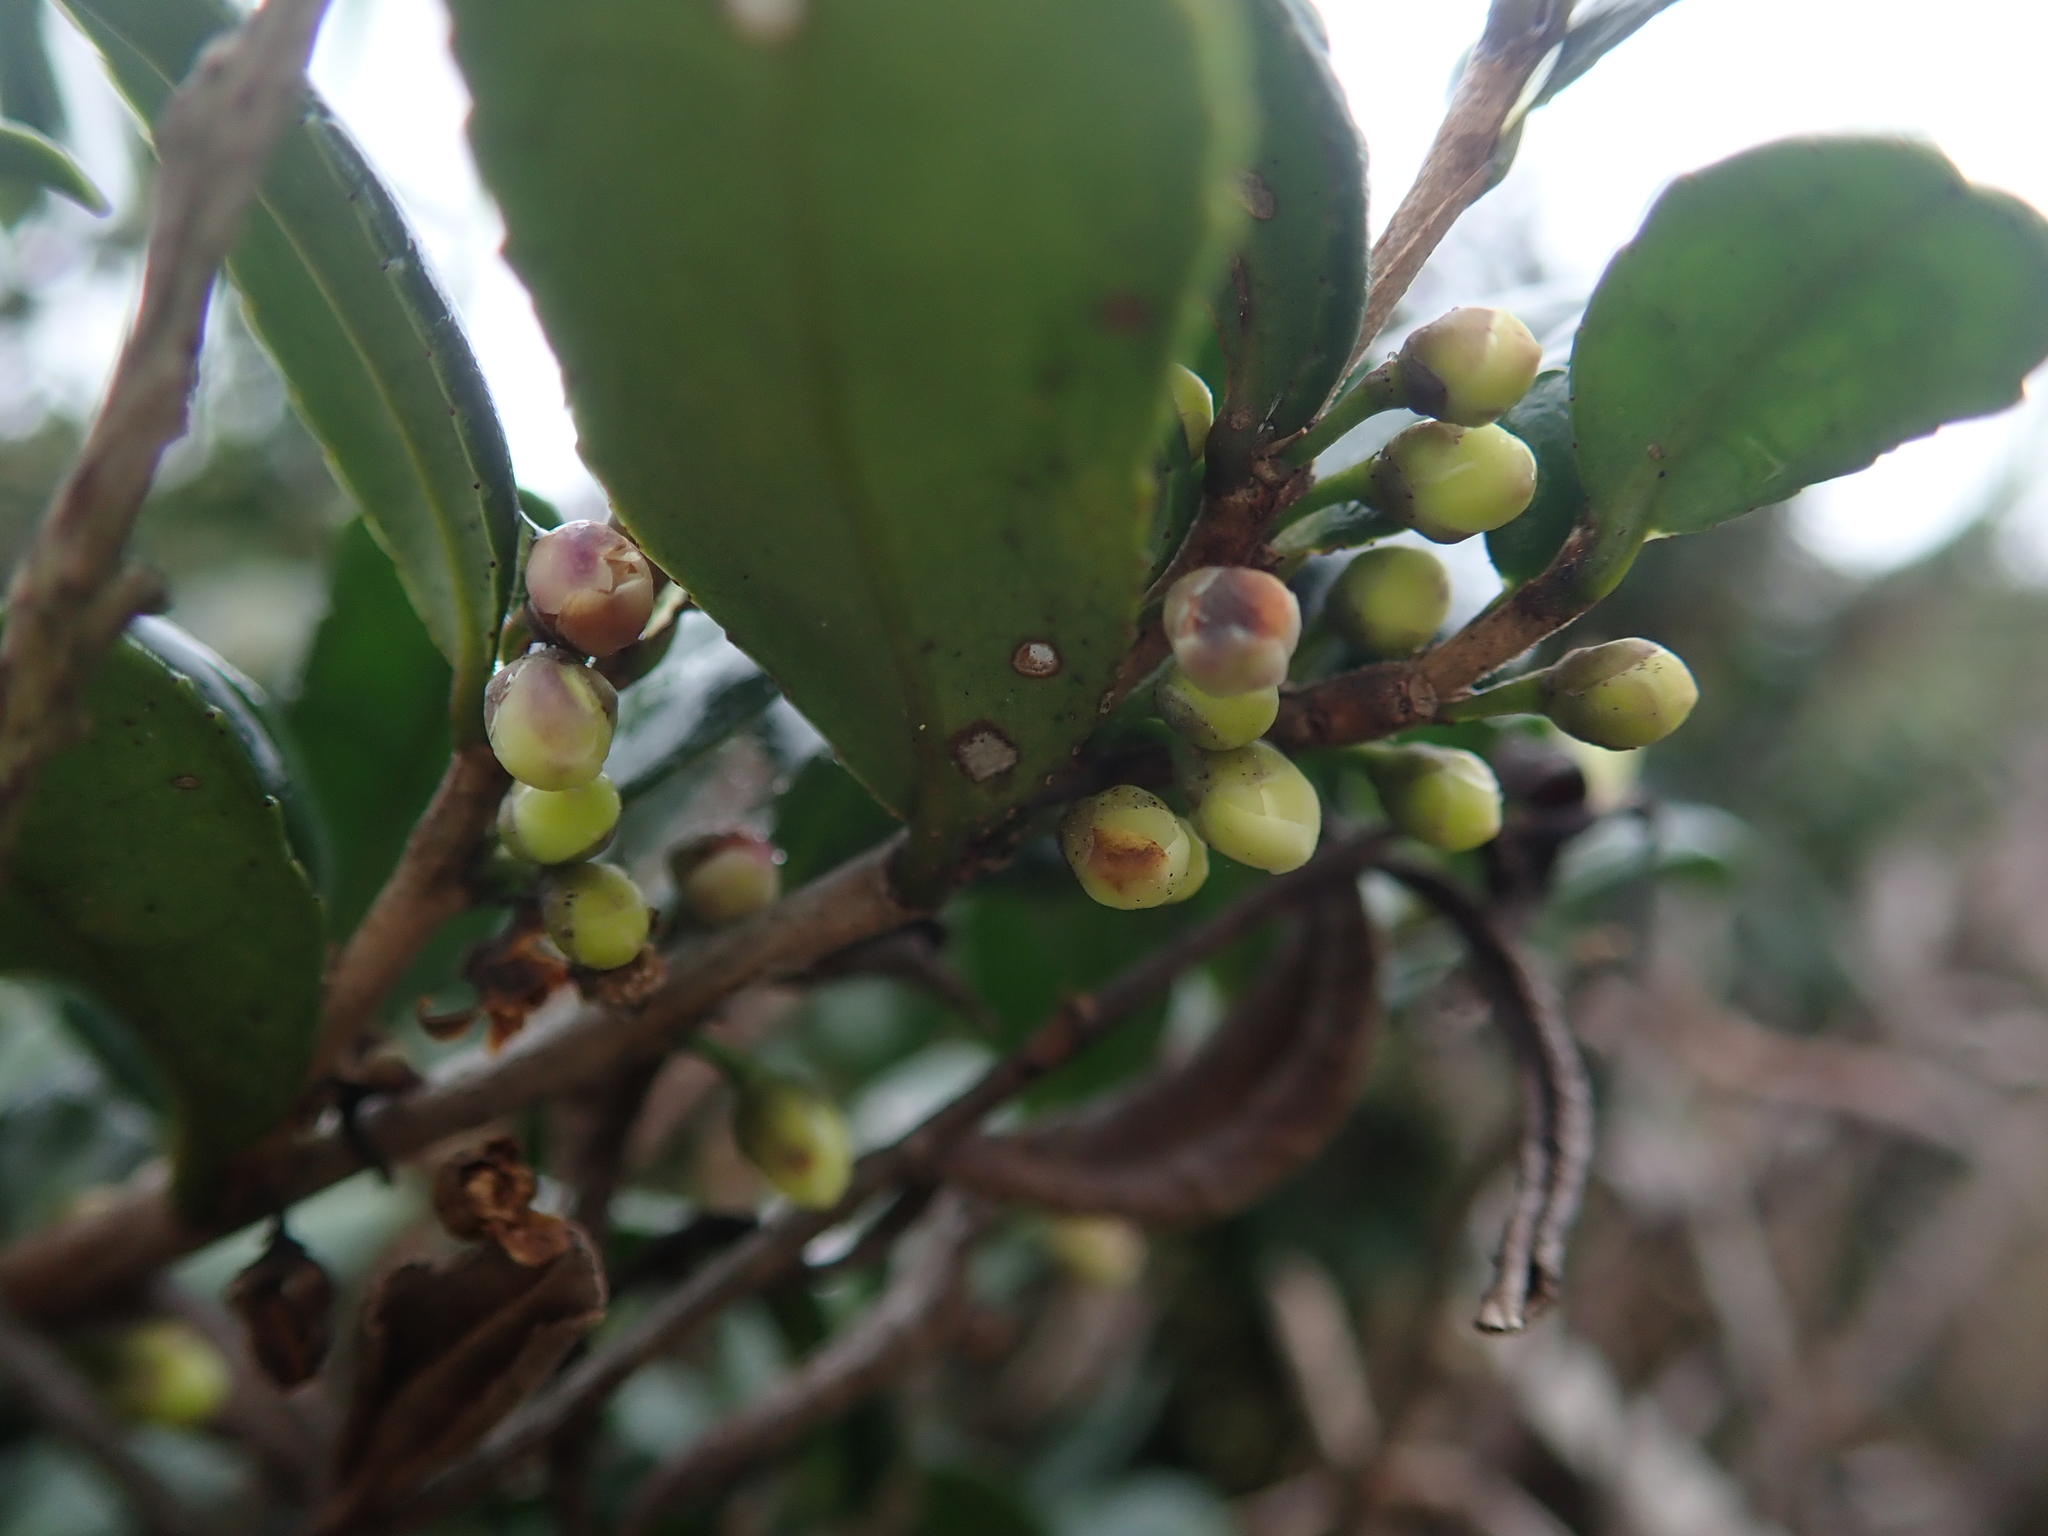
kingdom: Plantae
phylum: Tracheophyta
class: Magnoliopsida
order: Ericales
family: Pentaphylacaceae
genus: Eurya
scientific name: Eurya emarginata
